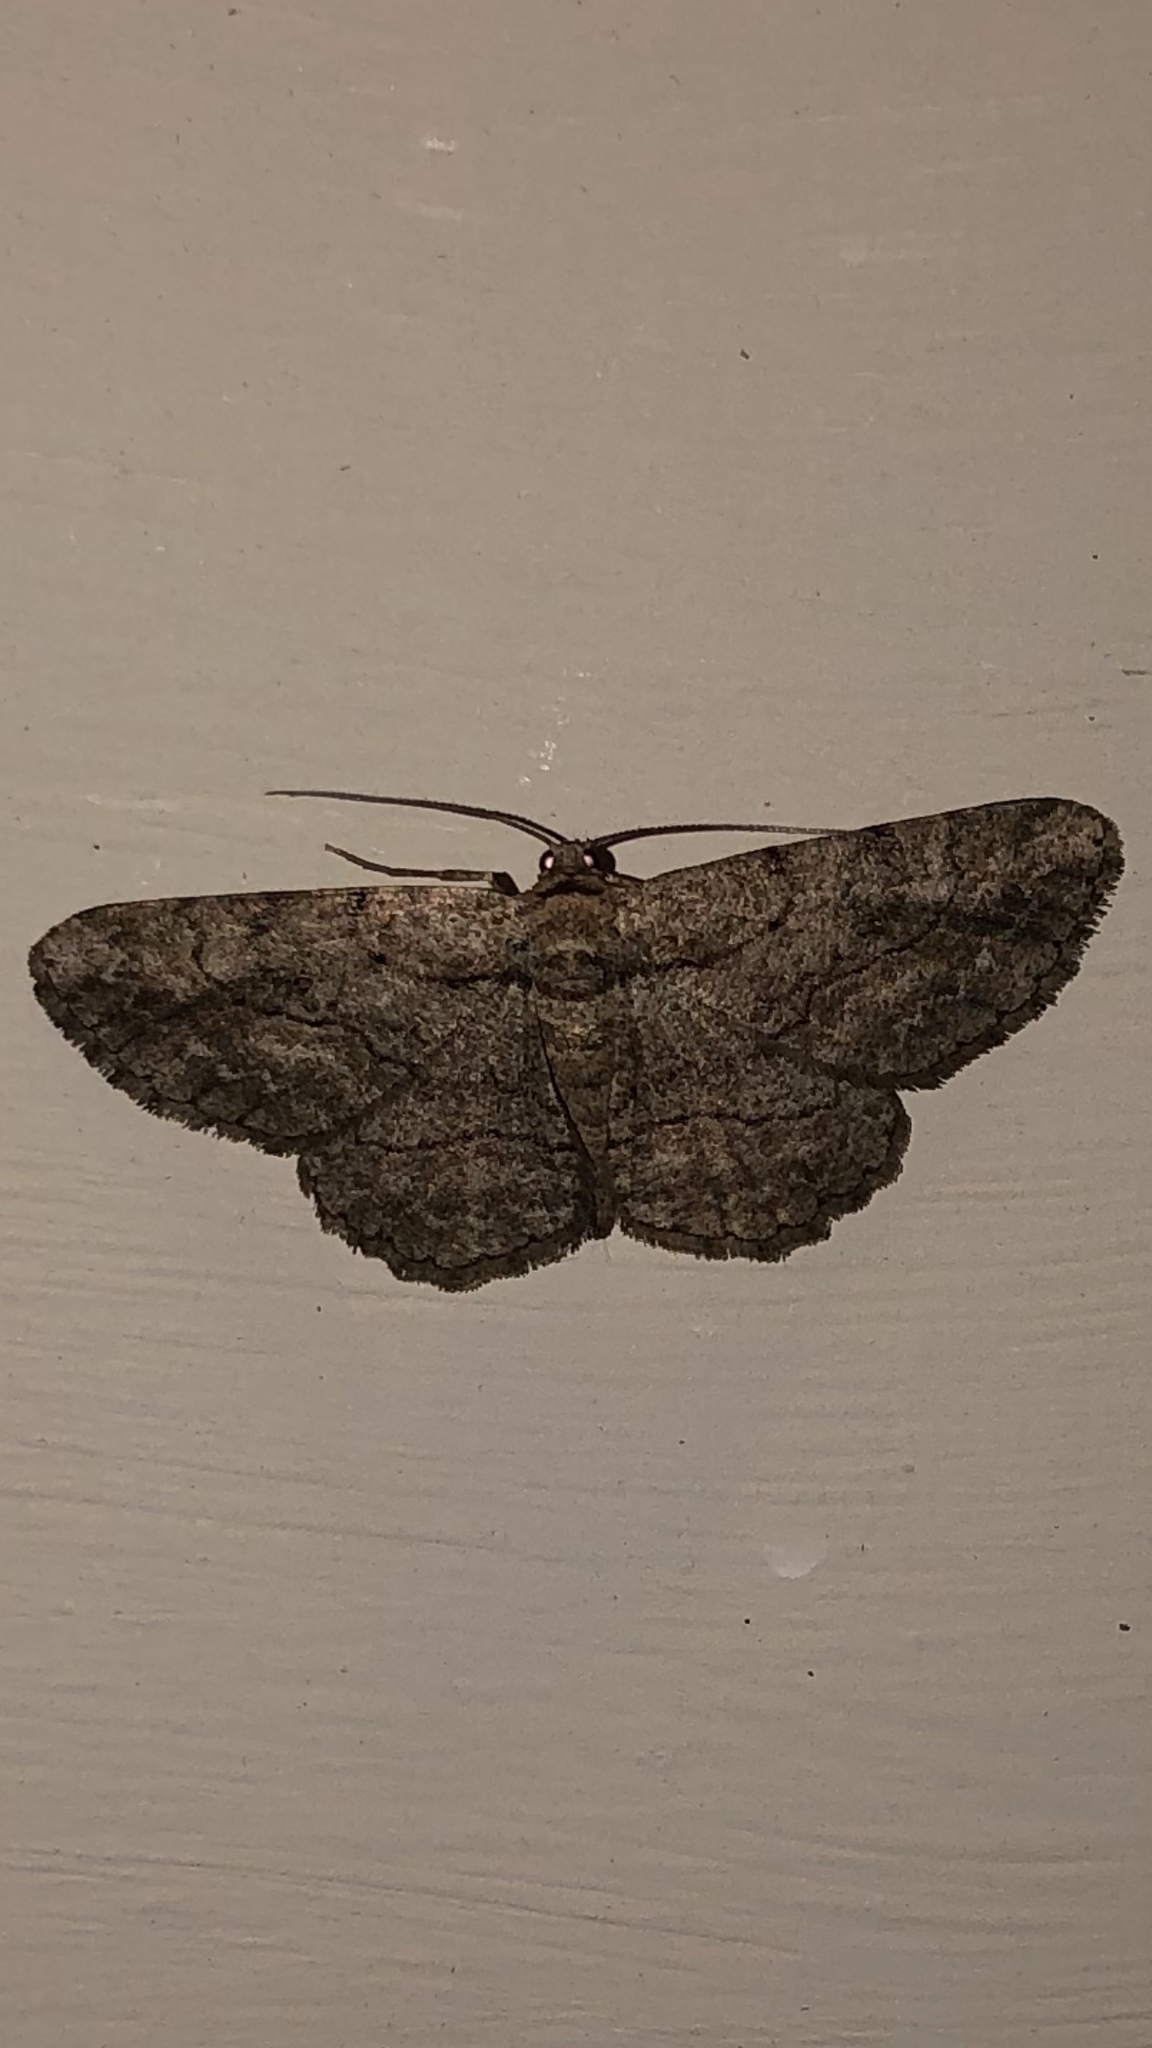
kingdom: Animalia
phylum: Arthropoda
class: Insecta
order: Lepidoptera
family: Geometridae
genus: Anavitrinella
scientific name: Anavitrinella pampinaria
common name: Common gray
